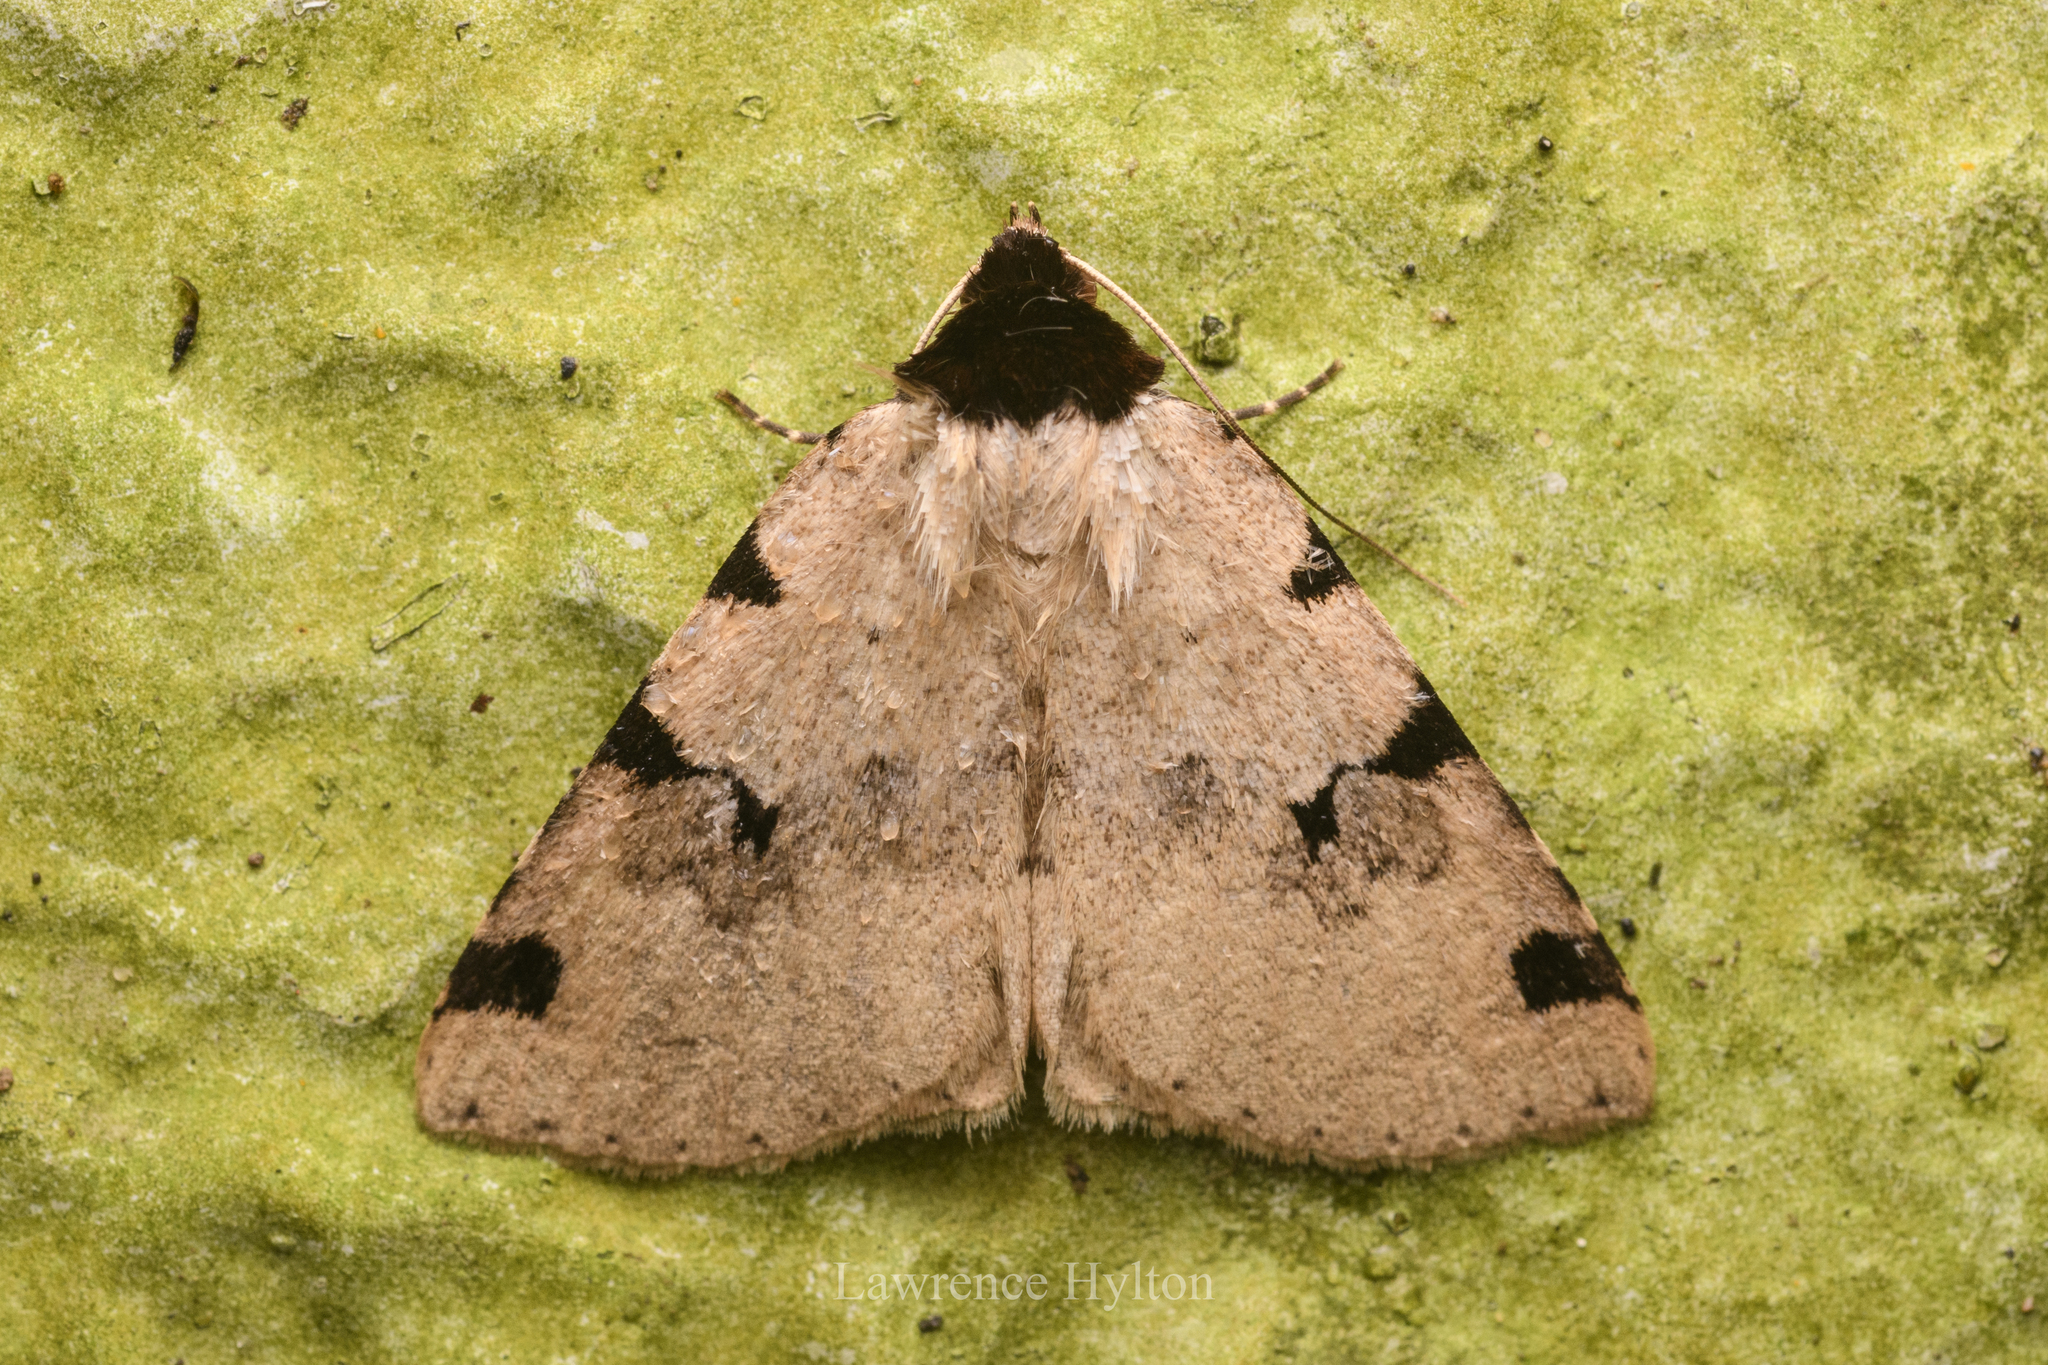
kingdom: Animalia
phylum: Arthropoda
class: Insecta
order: Lepidoptera
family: Erebidae
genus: Rema
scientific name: Rema costimacula
